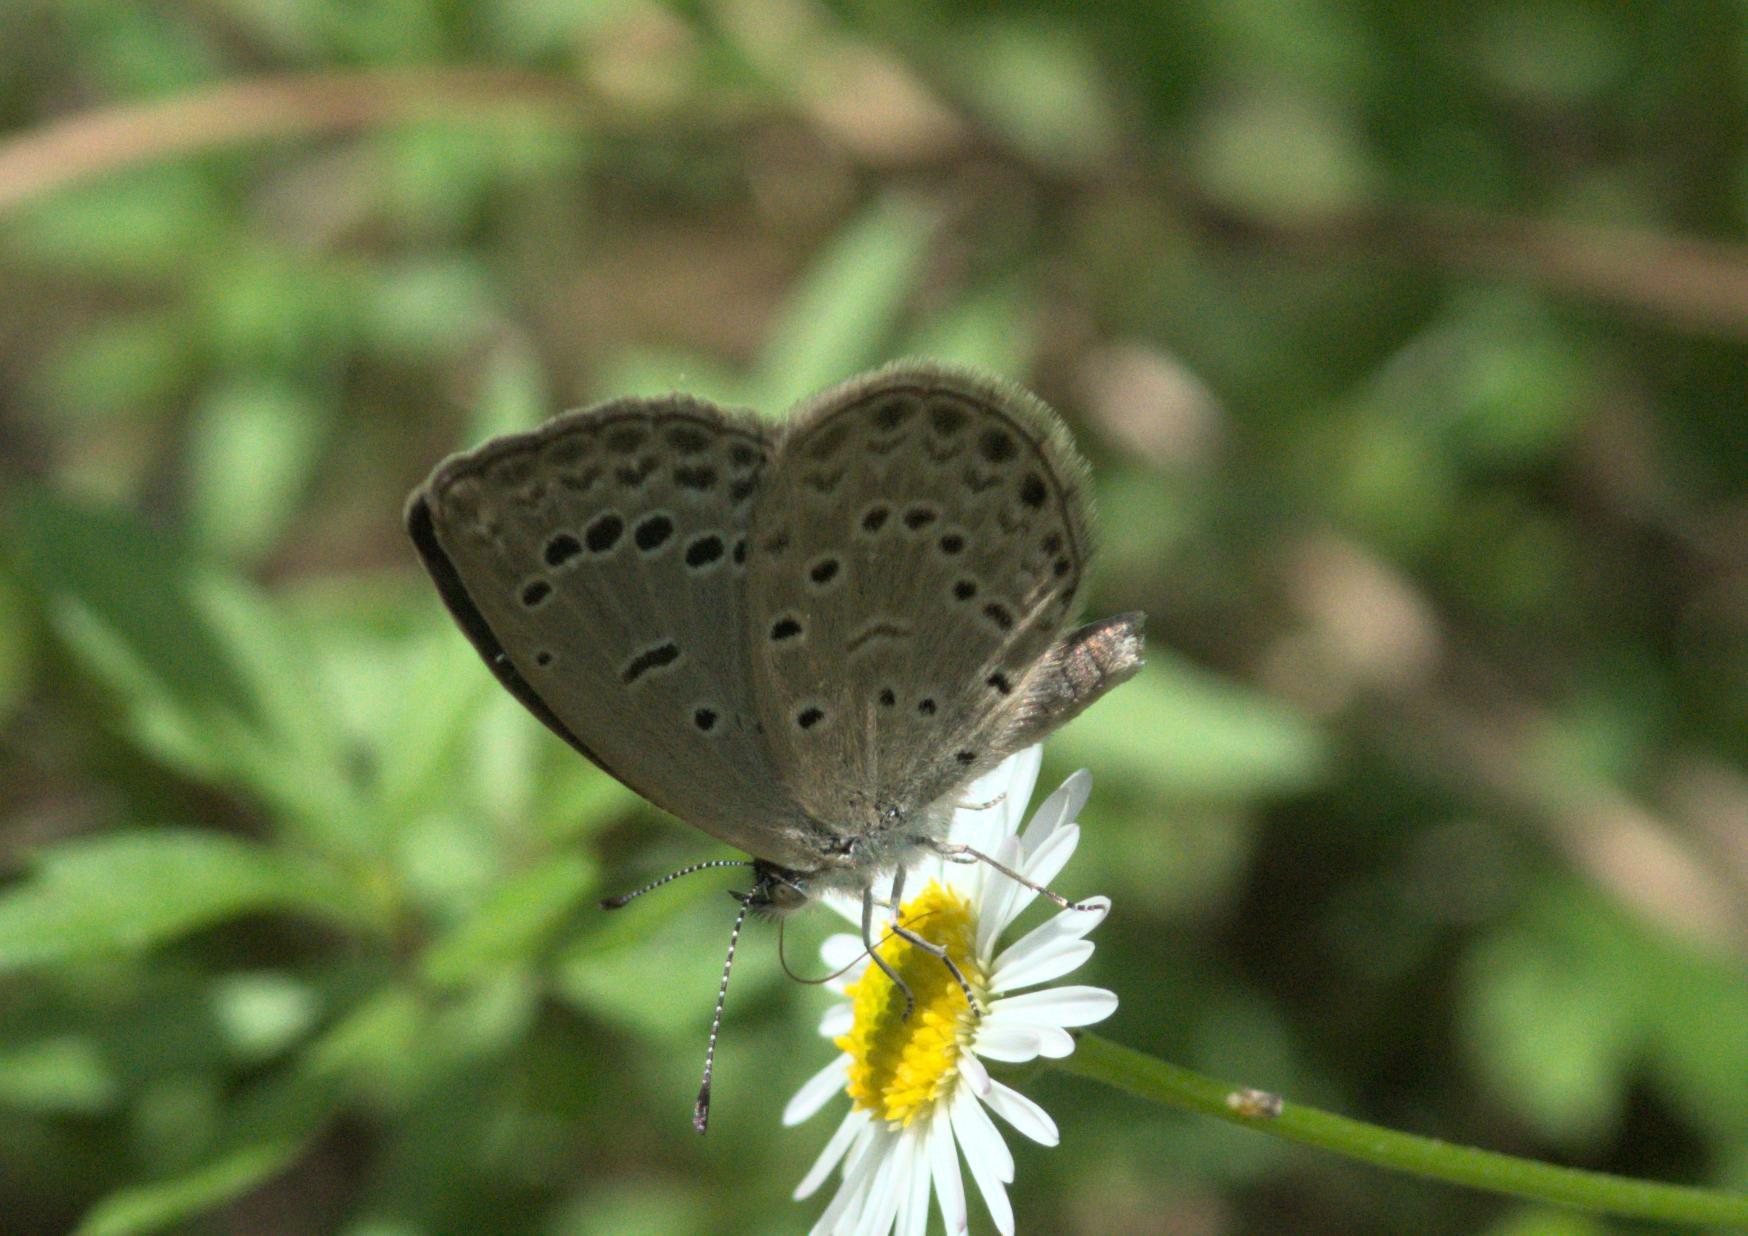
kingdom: Animalia
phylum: Arthropoda
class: Insecta
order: Lepidoptera
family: Lycaenidae
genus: Pseudozizeeria
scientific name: Pseudozizeeria maha
